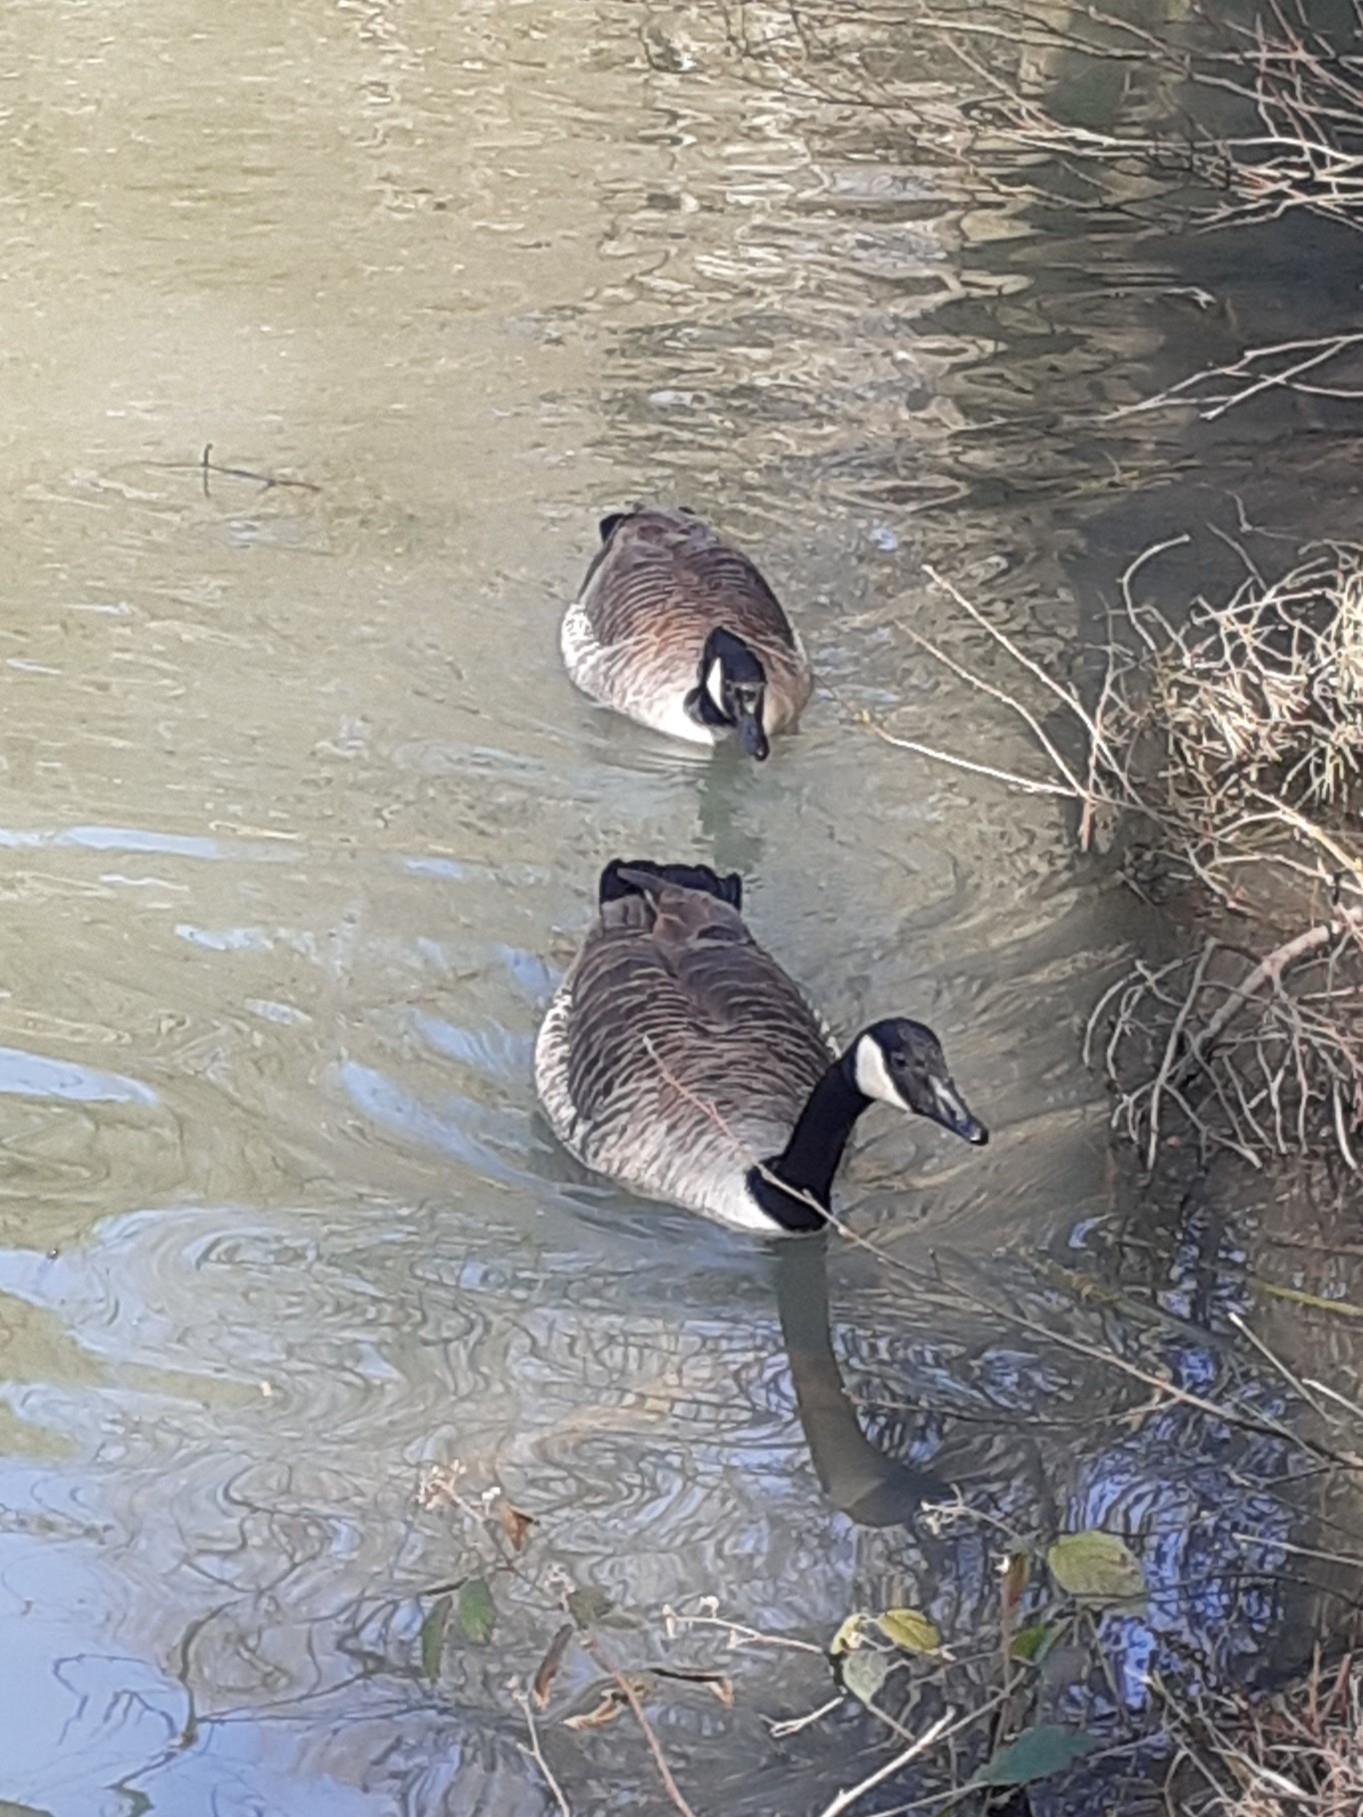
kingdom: Animalia
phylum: Chordata
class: Aves
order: Anseriformes
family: Anatidae
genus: Branta
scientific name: Branta canadensis
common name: Canada goose
